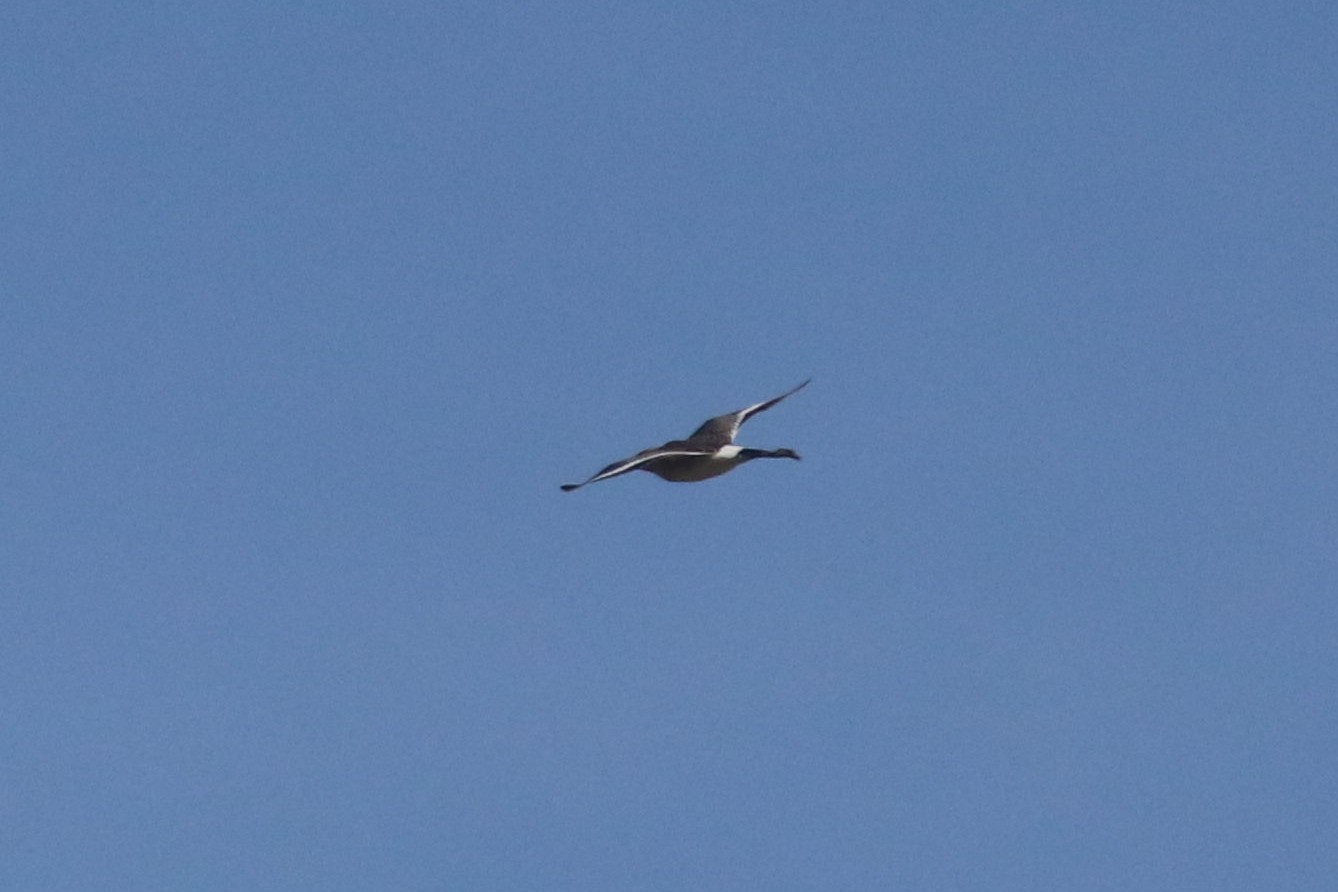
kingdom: Animalia
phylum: Chordata
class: Aves
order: Charadriiformes
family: Scolopacidae
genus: Limosa
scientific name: Limosa limosa
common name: Black-tailed godwit
